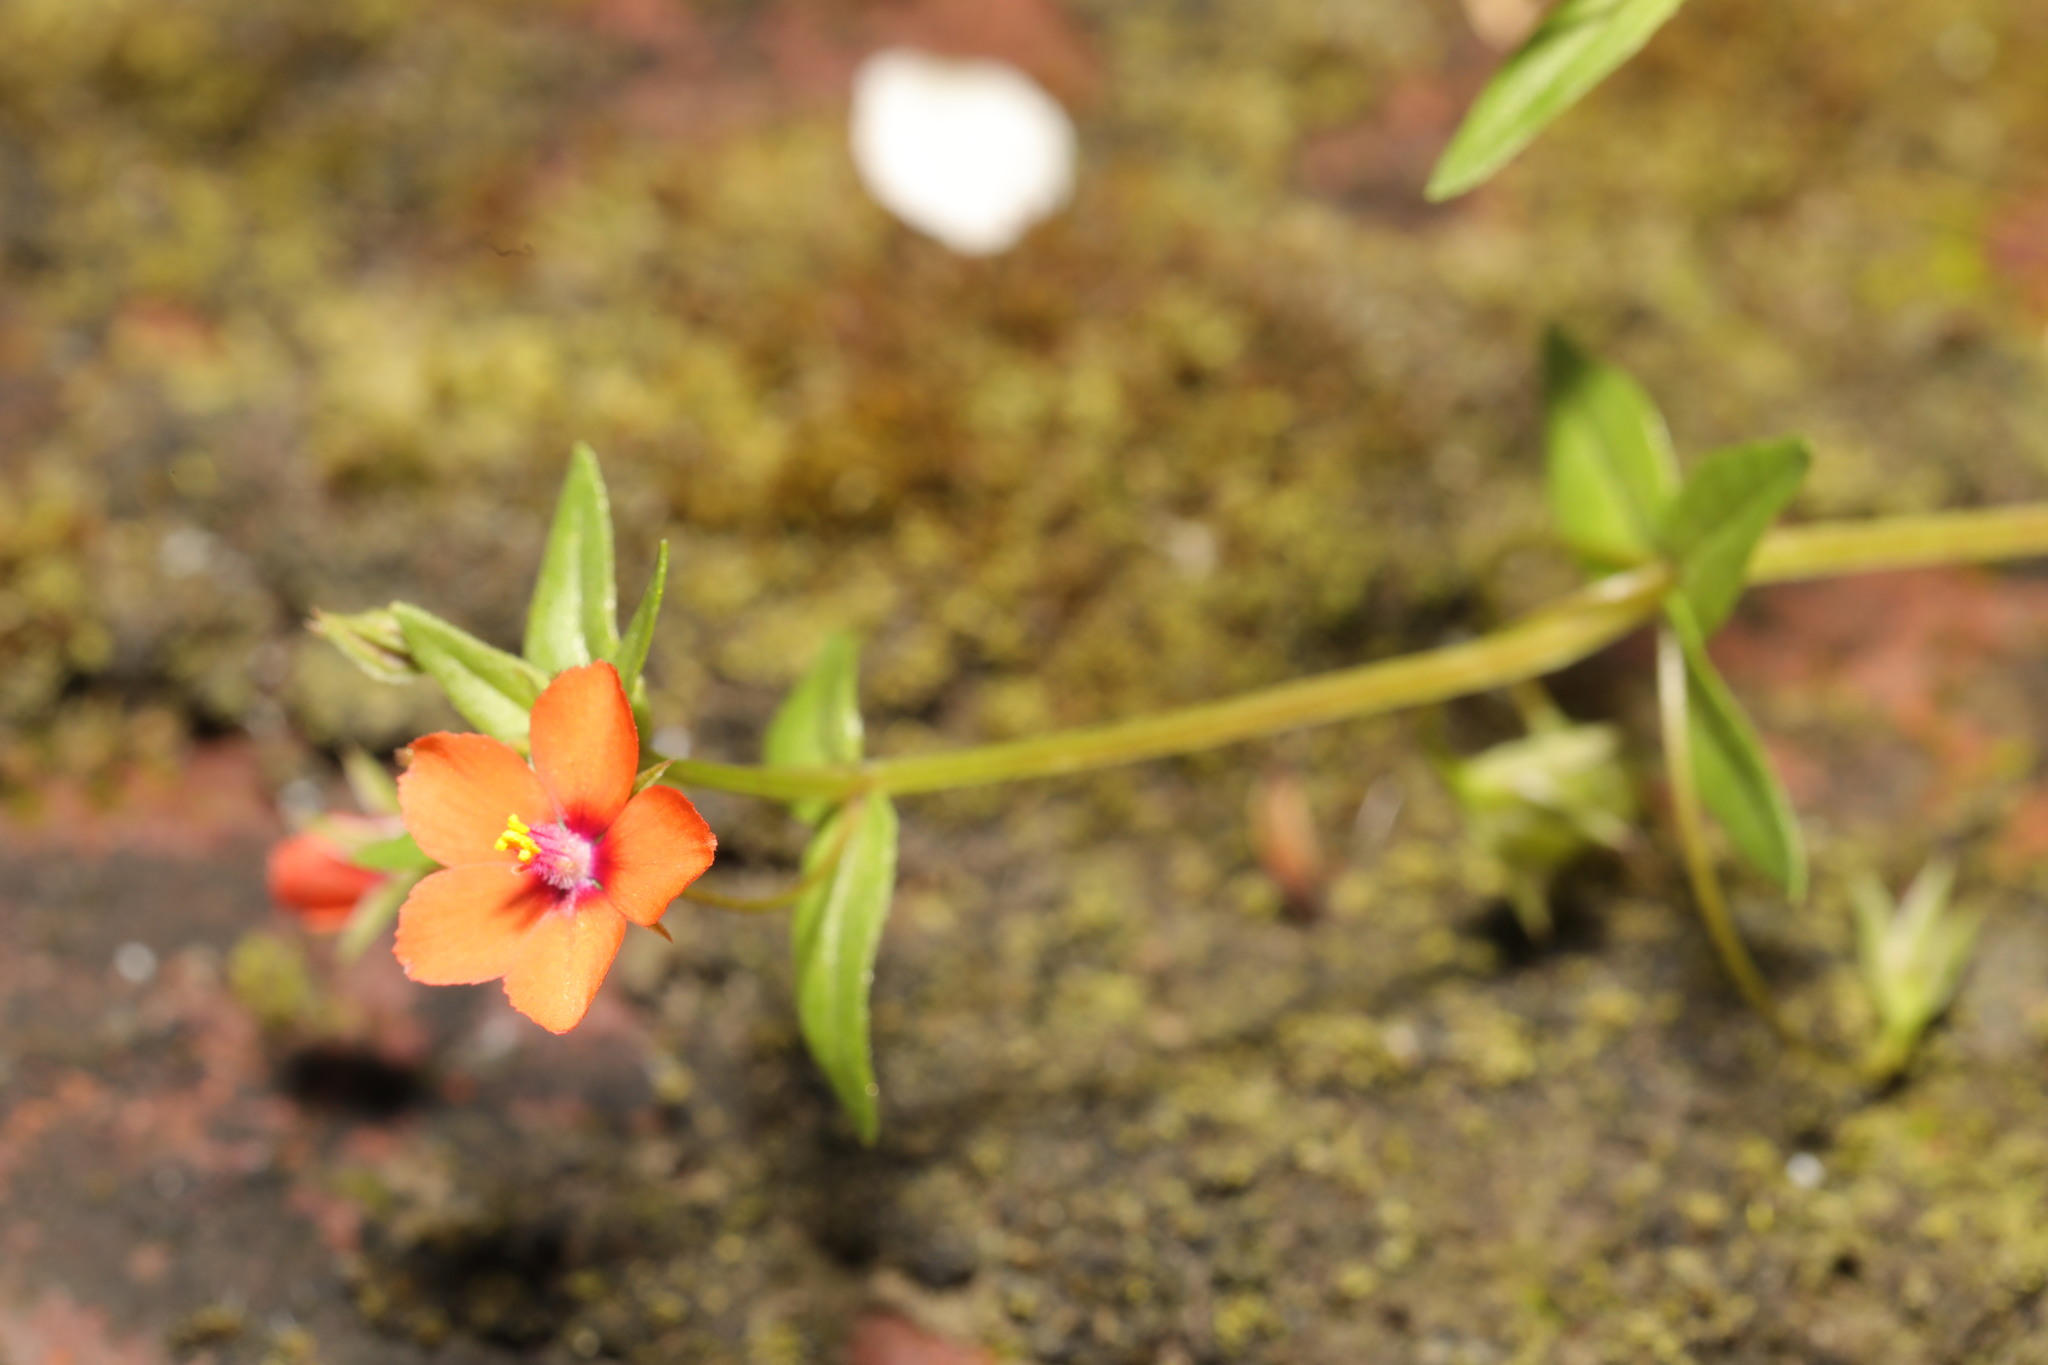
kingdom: Plantae
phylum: Tracheophyta
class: Magnoliopsida
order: Ericales
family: Primulaceae
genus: Lysimachia
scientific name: Lysimachia arvensis
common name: Scarlet pimpernel
